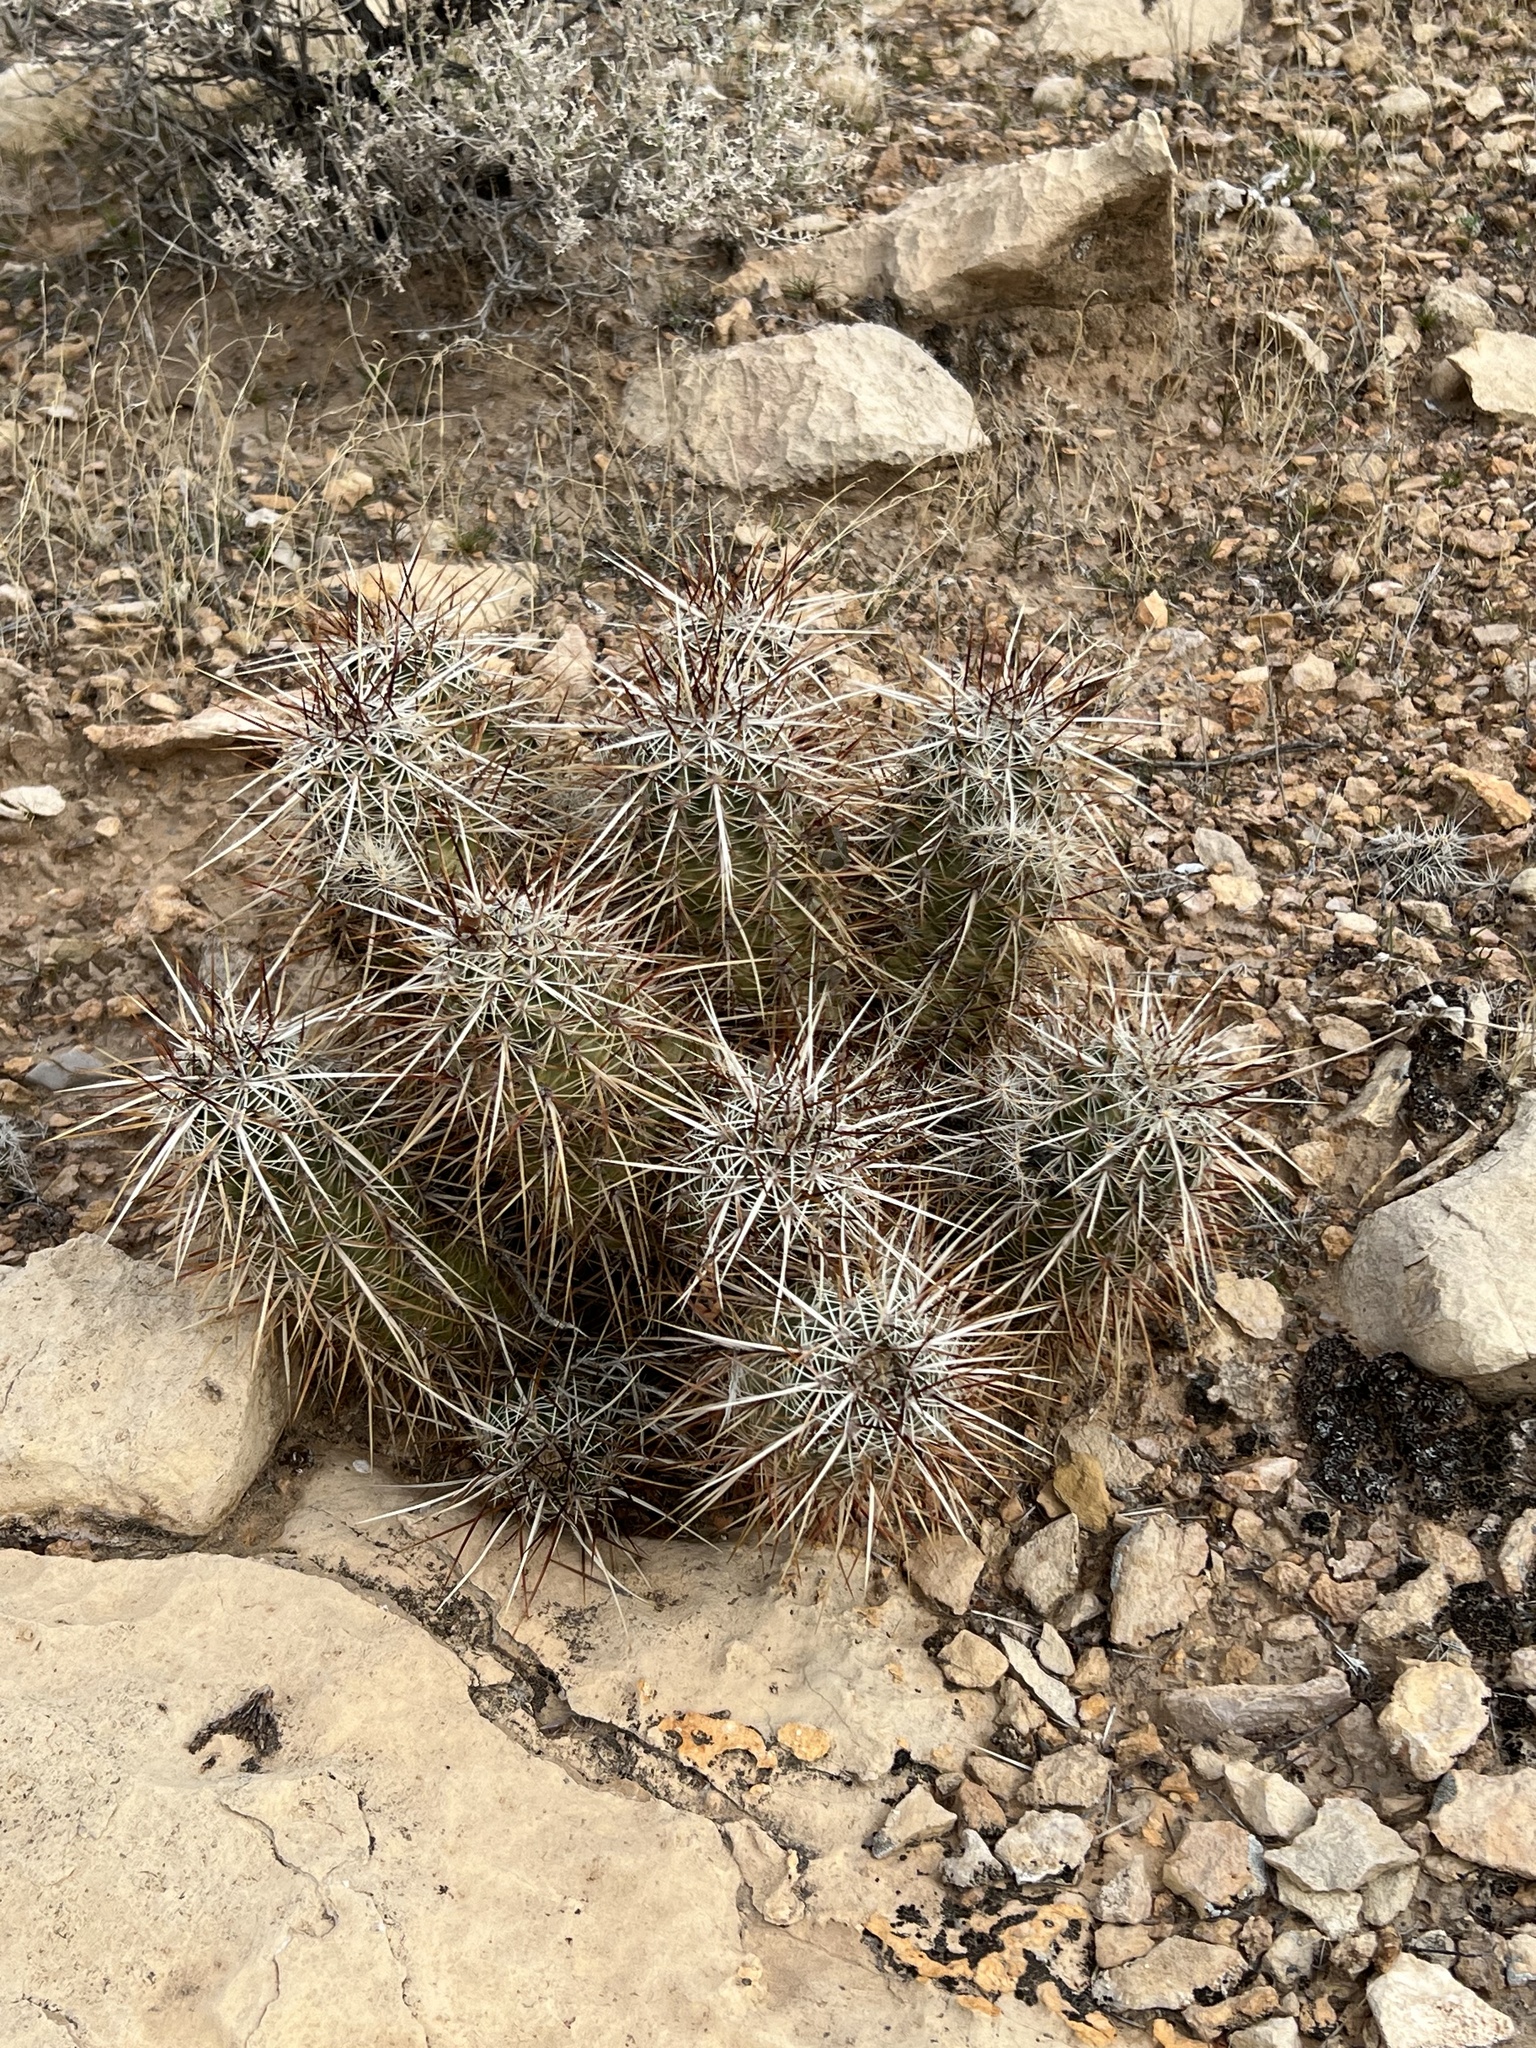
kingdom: Plantae
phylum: Tracheophyta
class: Magnoliopsida
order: Caryophyllales
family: Cactaceae
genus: Echinocereus
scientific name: Echinocereus engelmannii
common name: Engelmann's hedgehog cactus
